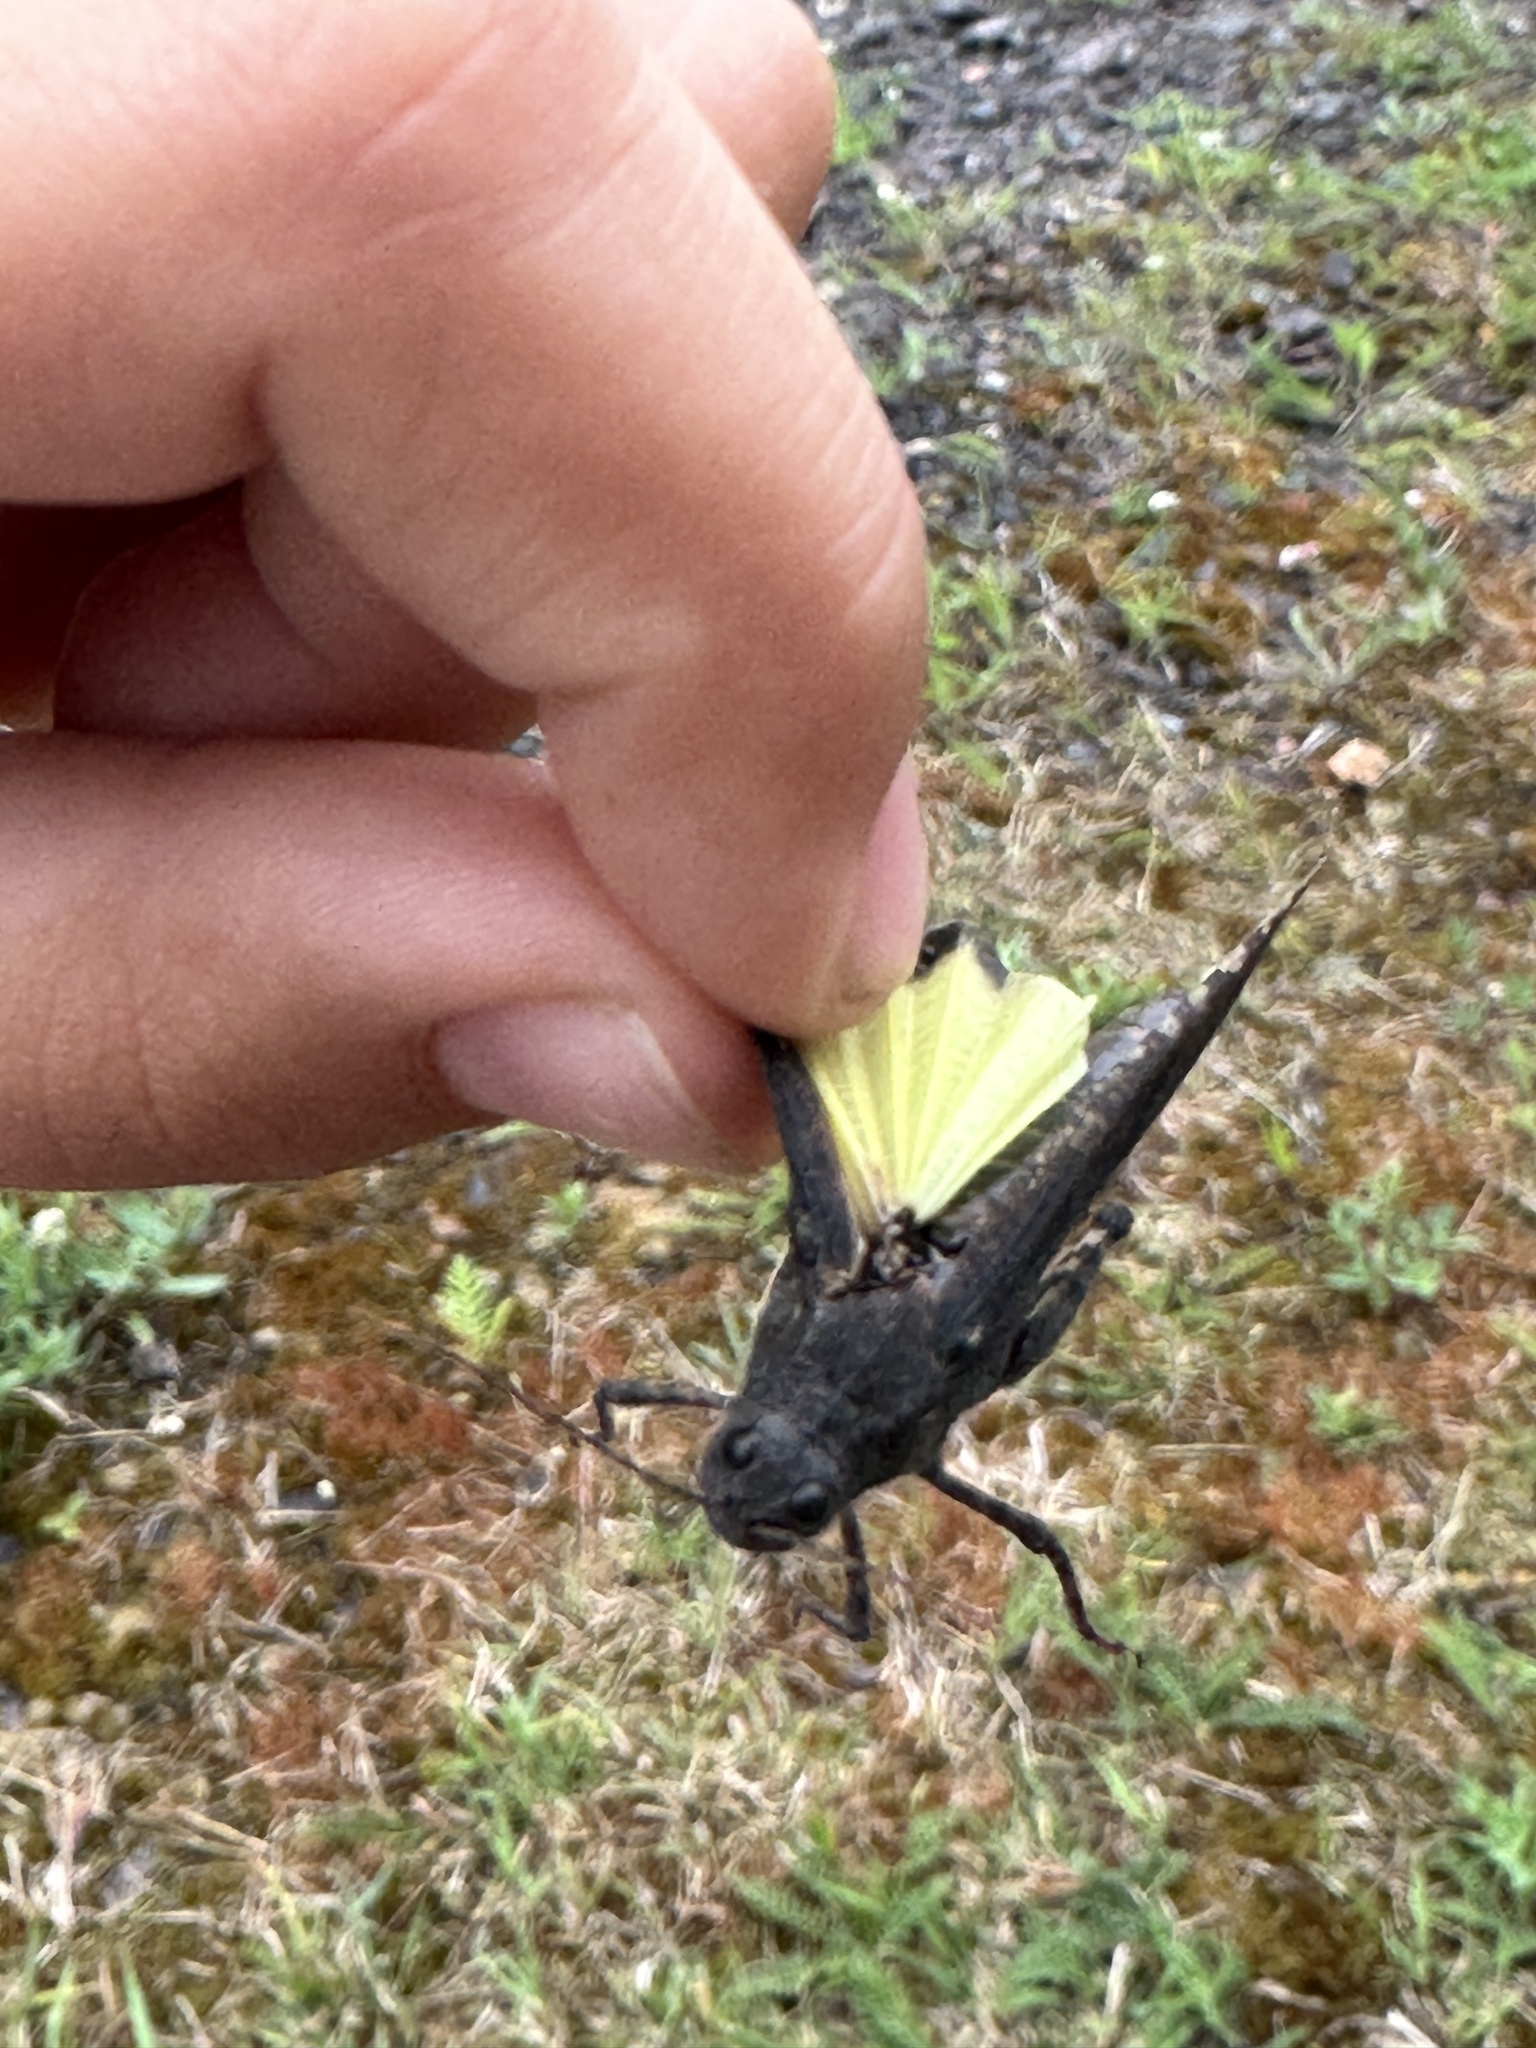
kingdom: Animalia
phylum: Arthropoda
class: Insecta
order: Orthoptera
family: Acrididae
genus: Trimerotropis
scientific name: Trimerotropis verruculata
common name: Crackling forest grasshopper
